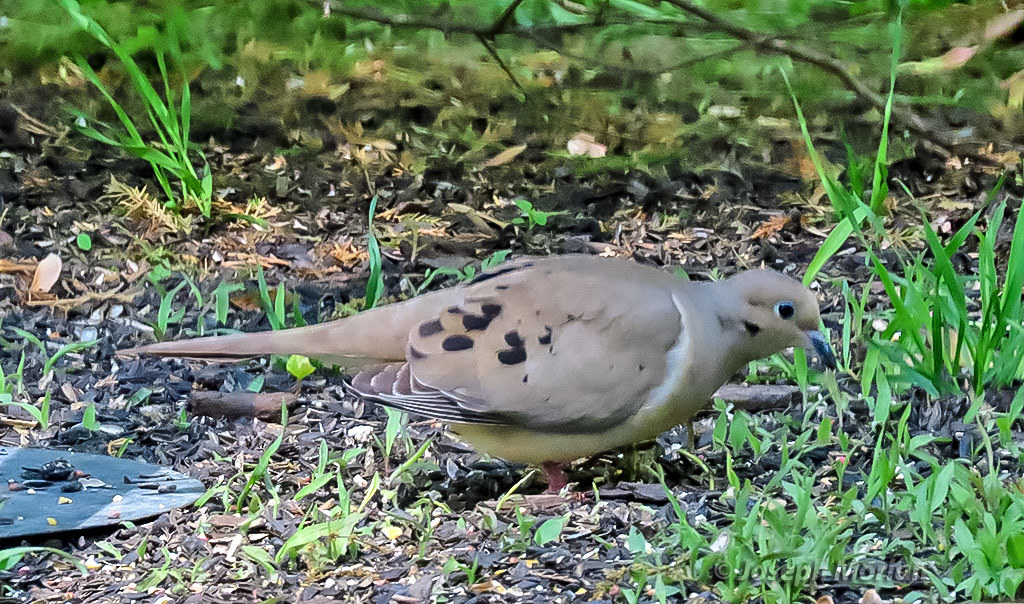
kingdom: Animalia
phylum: Chordata
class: Aves
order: Columbiformes
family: Columbidae
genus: Zenaida
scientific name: Zenaida macroura
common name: Mourning dove
